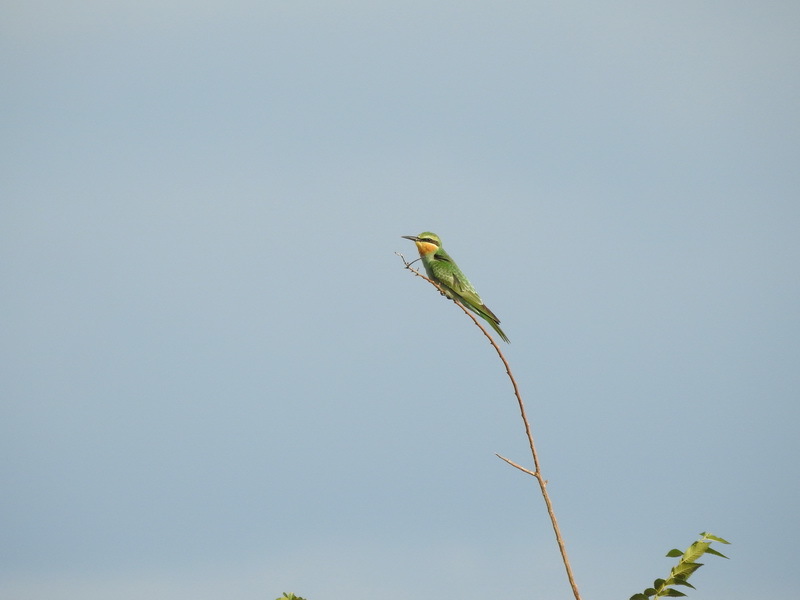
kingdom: Animalia
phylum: Chordata
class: Aves
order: Coraciiformes
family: Meropidae
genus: Merops
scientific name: Merops persicus
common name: Blue-cheeked bee-eater
